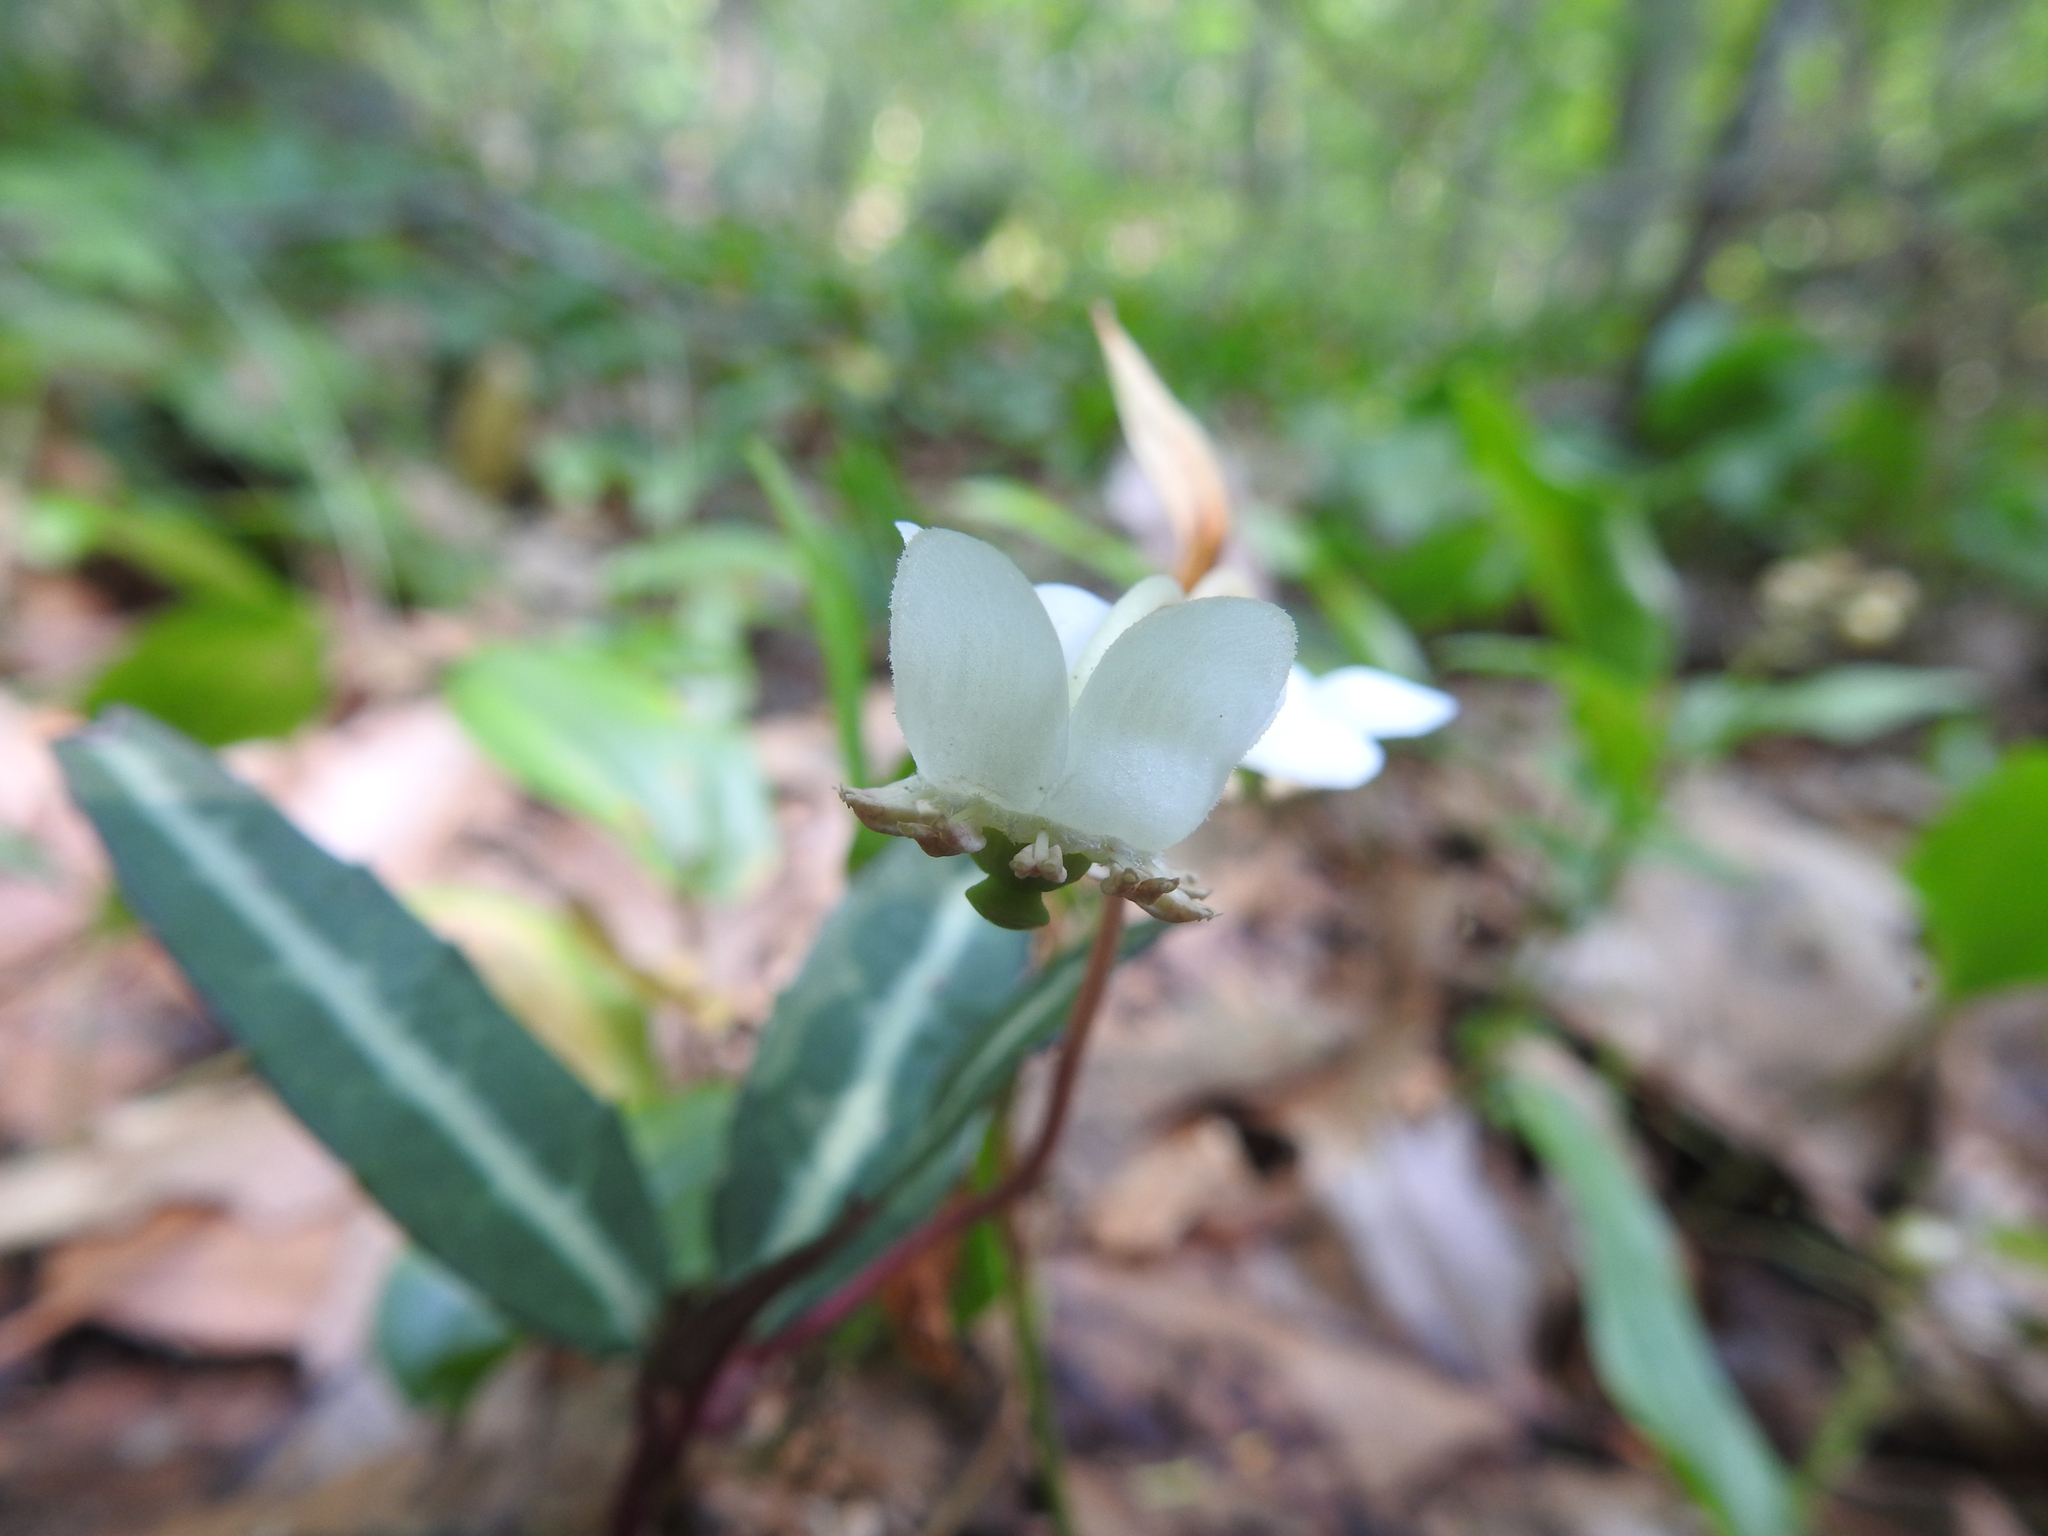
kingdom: Plantae
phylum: Tracheophyta
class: Magnoliopsida
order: Ericales
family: Ericaceae
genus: Chimaphila
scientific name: Chimaphila maculata
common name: Spotted pipsissewa
